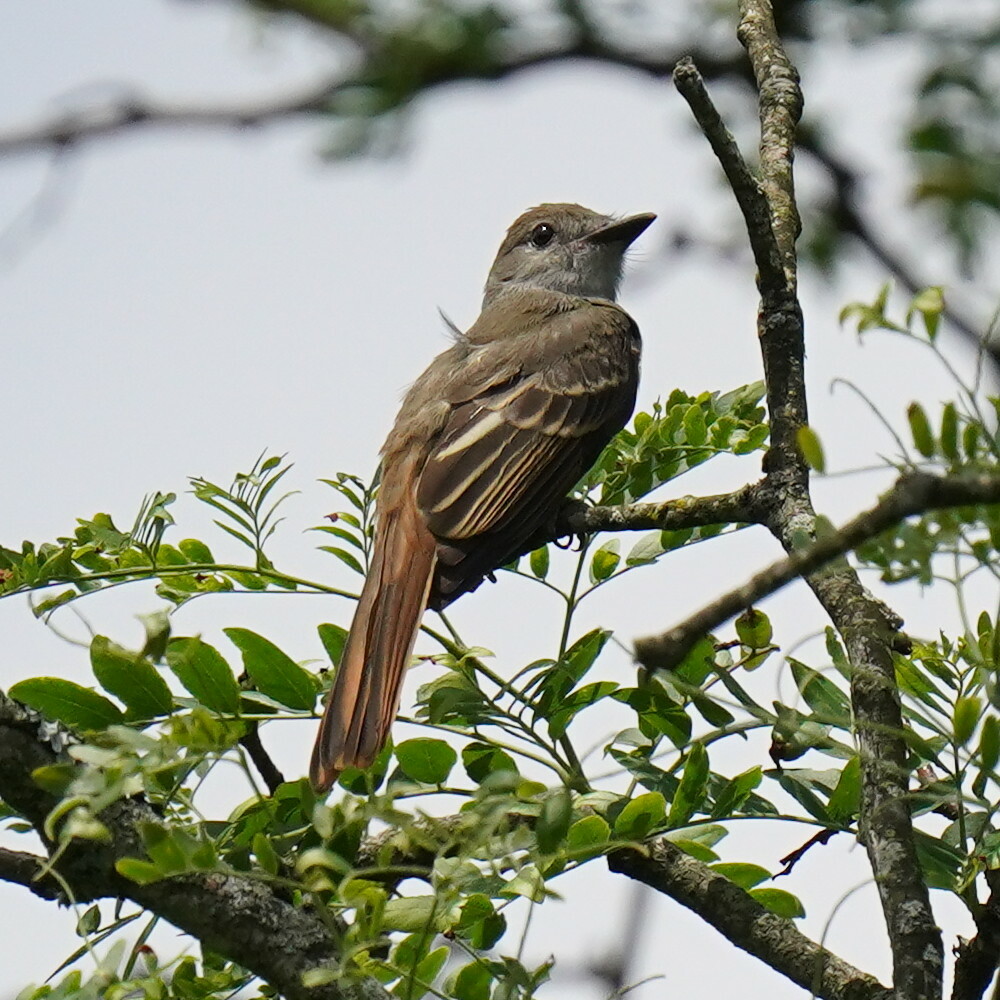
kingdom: Animalia
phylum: Chordata
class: Aves
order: Passeriformes
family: Tyrannidae
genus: Myiarchus
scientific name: Myiarchus crinitus
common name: Great crested flycatcher
